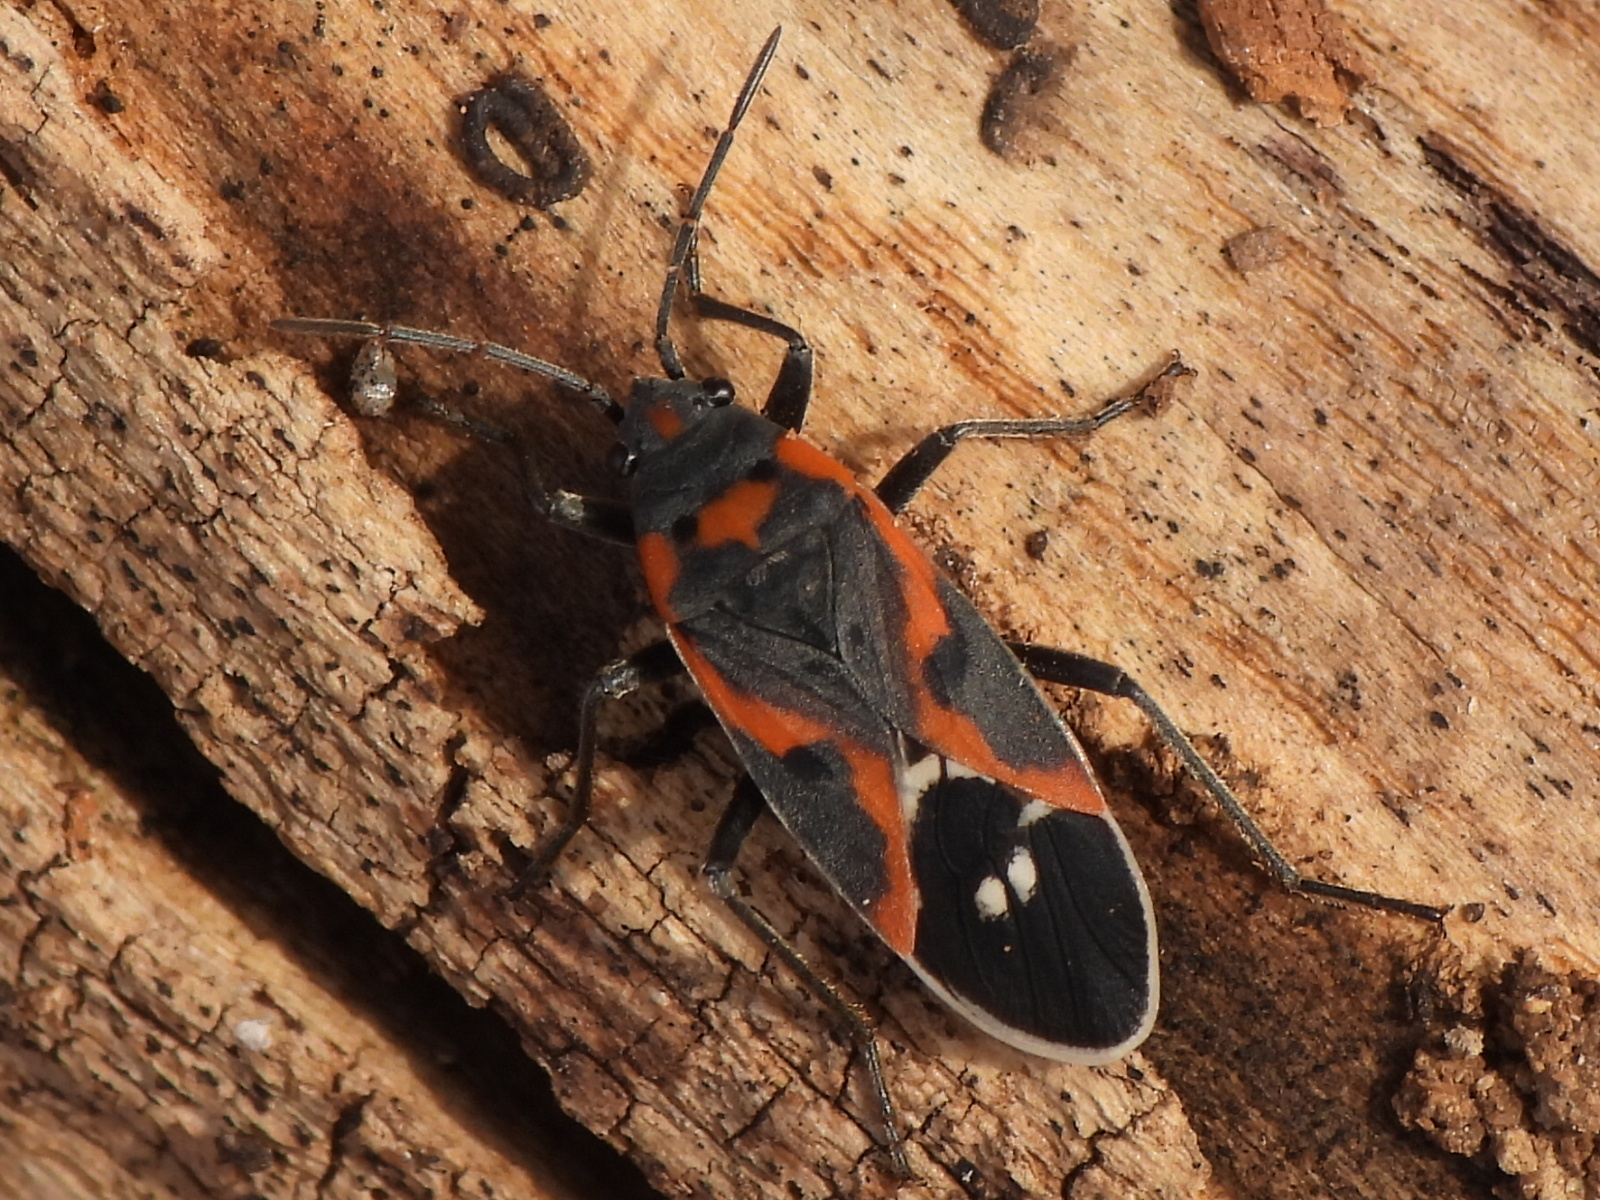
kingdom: Animalia
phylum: Arthropoda
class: Insecta
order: Hemiptera
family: Lygaeidae
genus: Lygaeus
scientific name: Lygaeus kalmii
